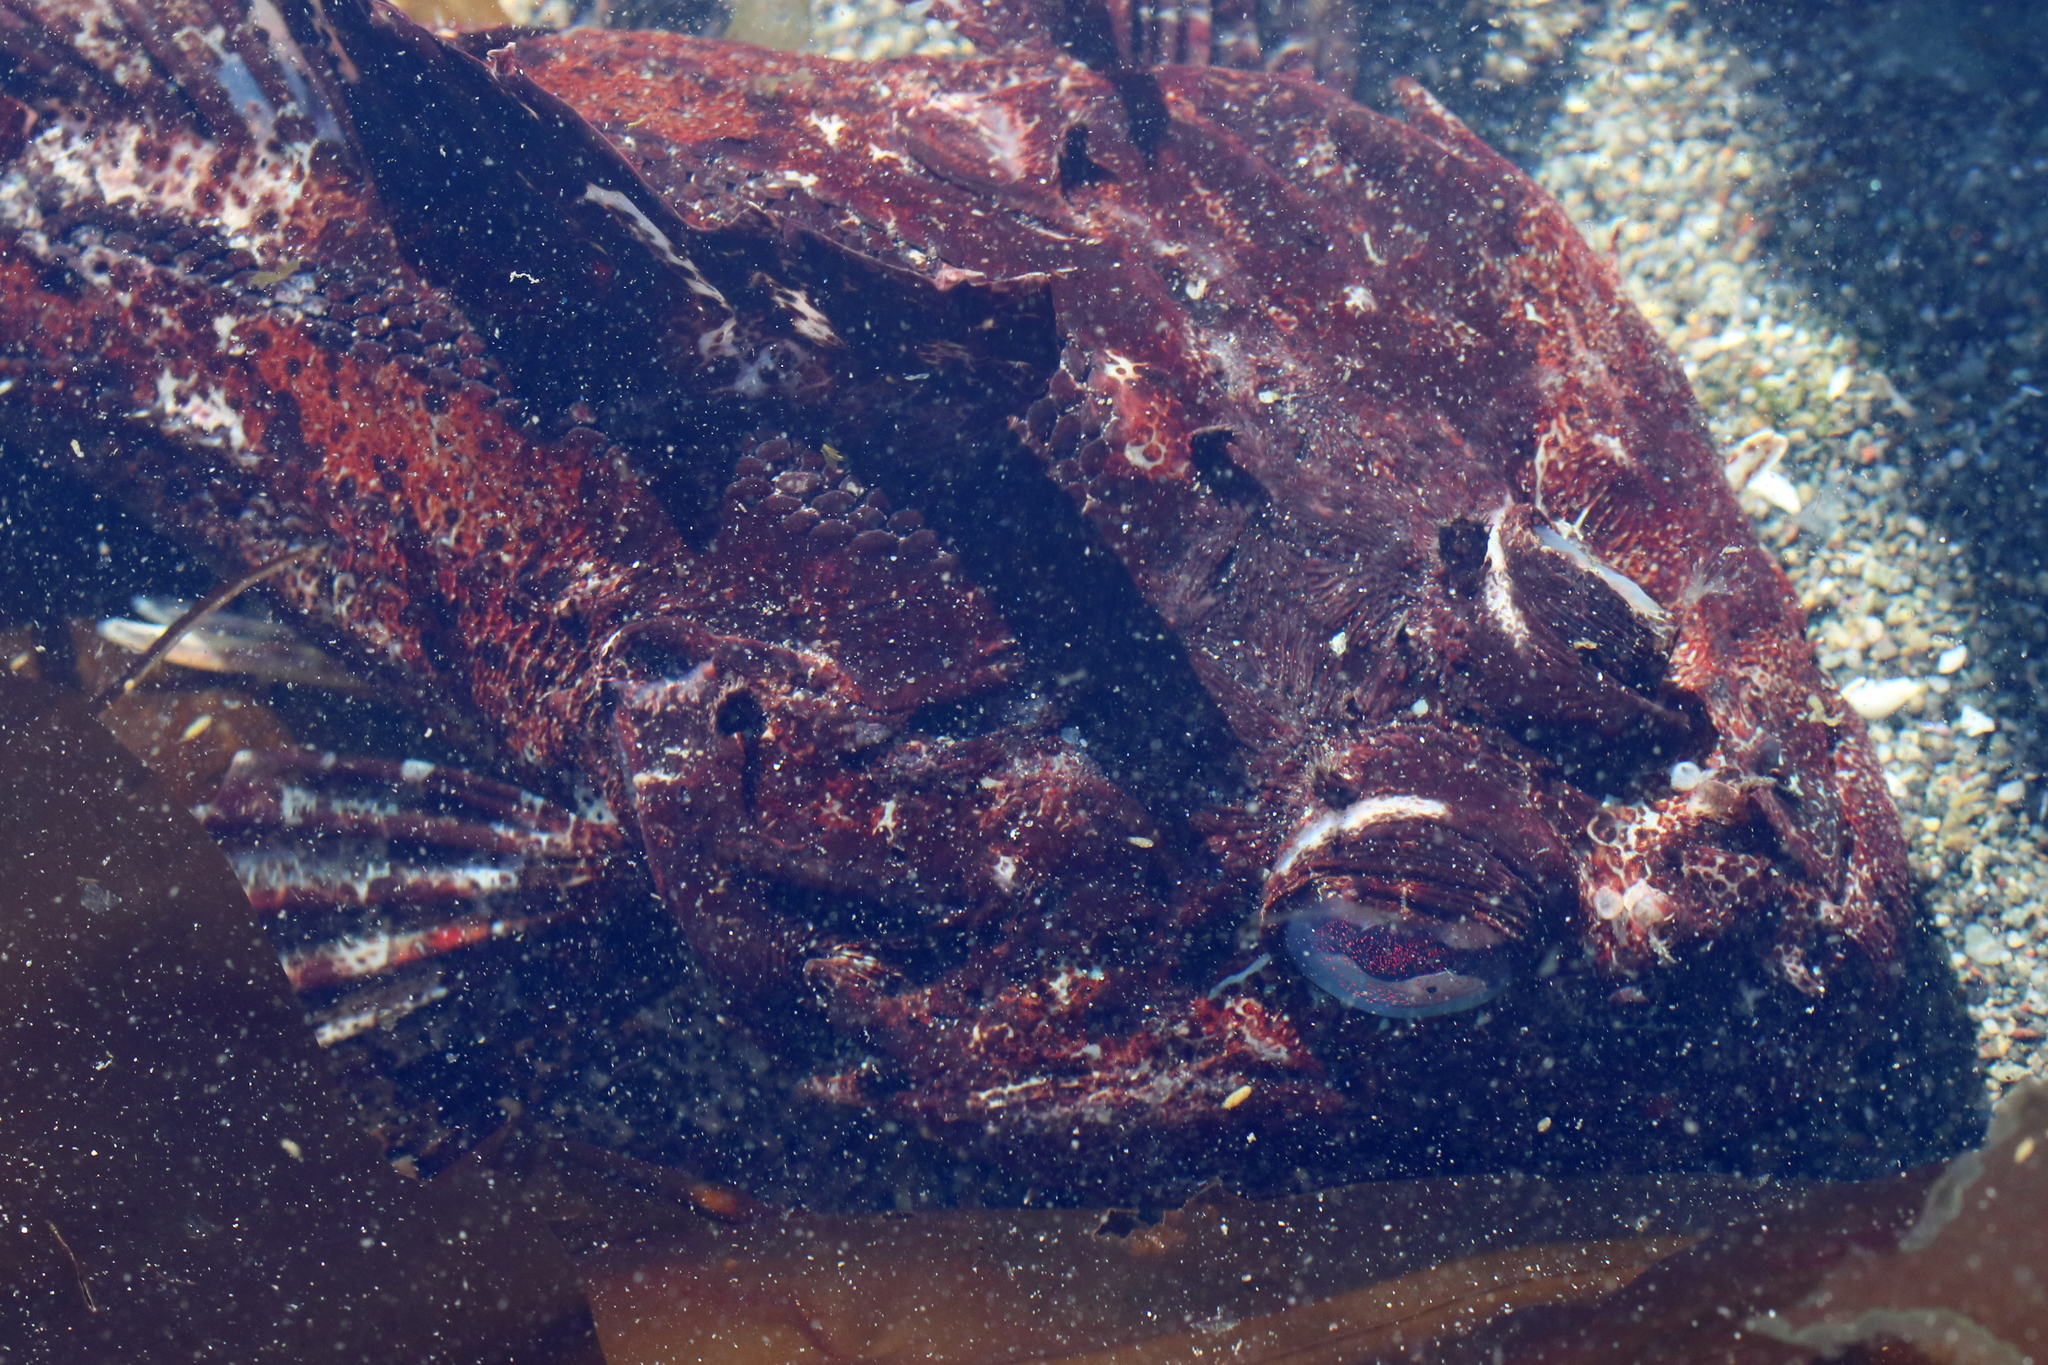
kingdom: Animalia
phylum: Chordata
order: Scorpaeniformes
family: Cottidae
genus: Hemilepidotus
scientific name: Hemilepidotus hemilepidotus
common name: Red irish lord
